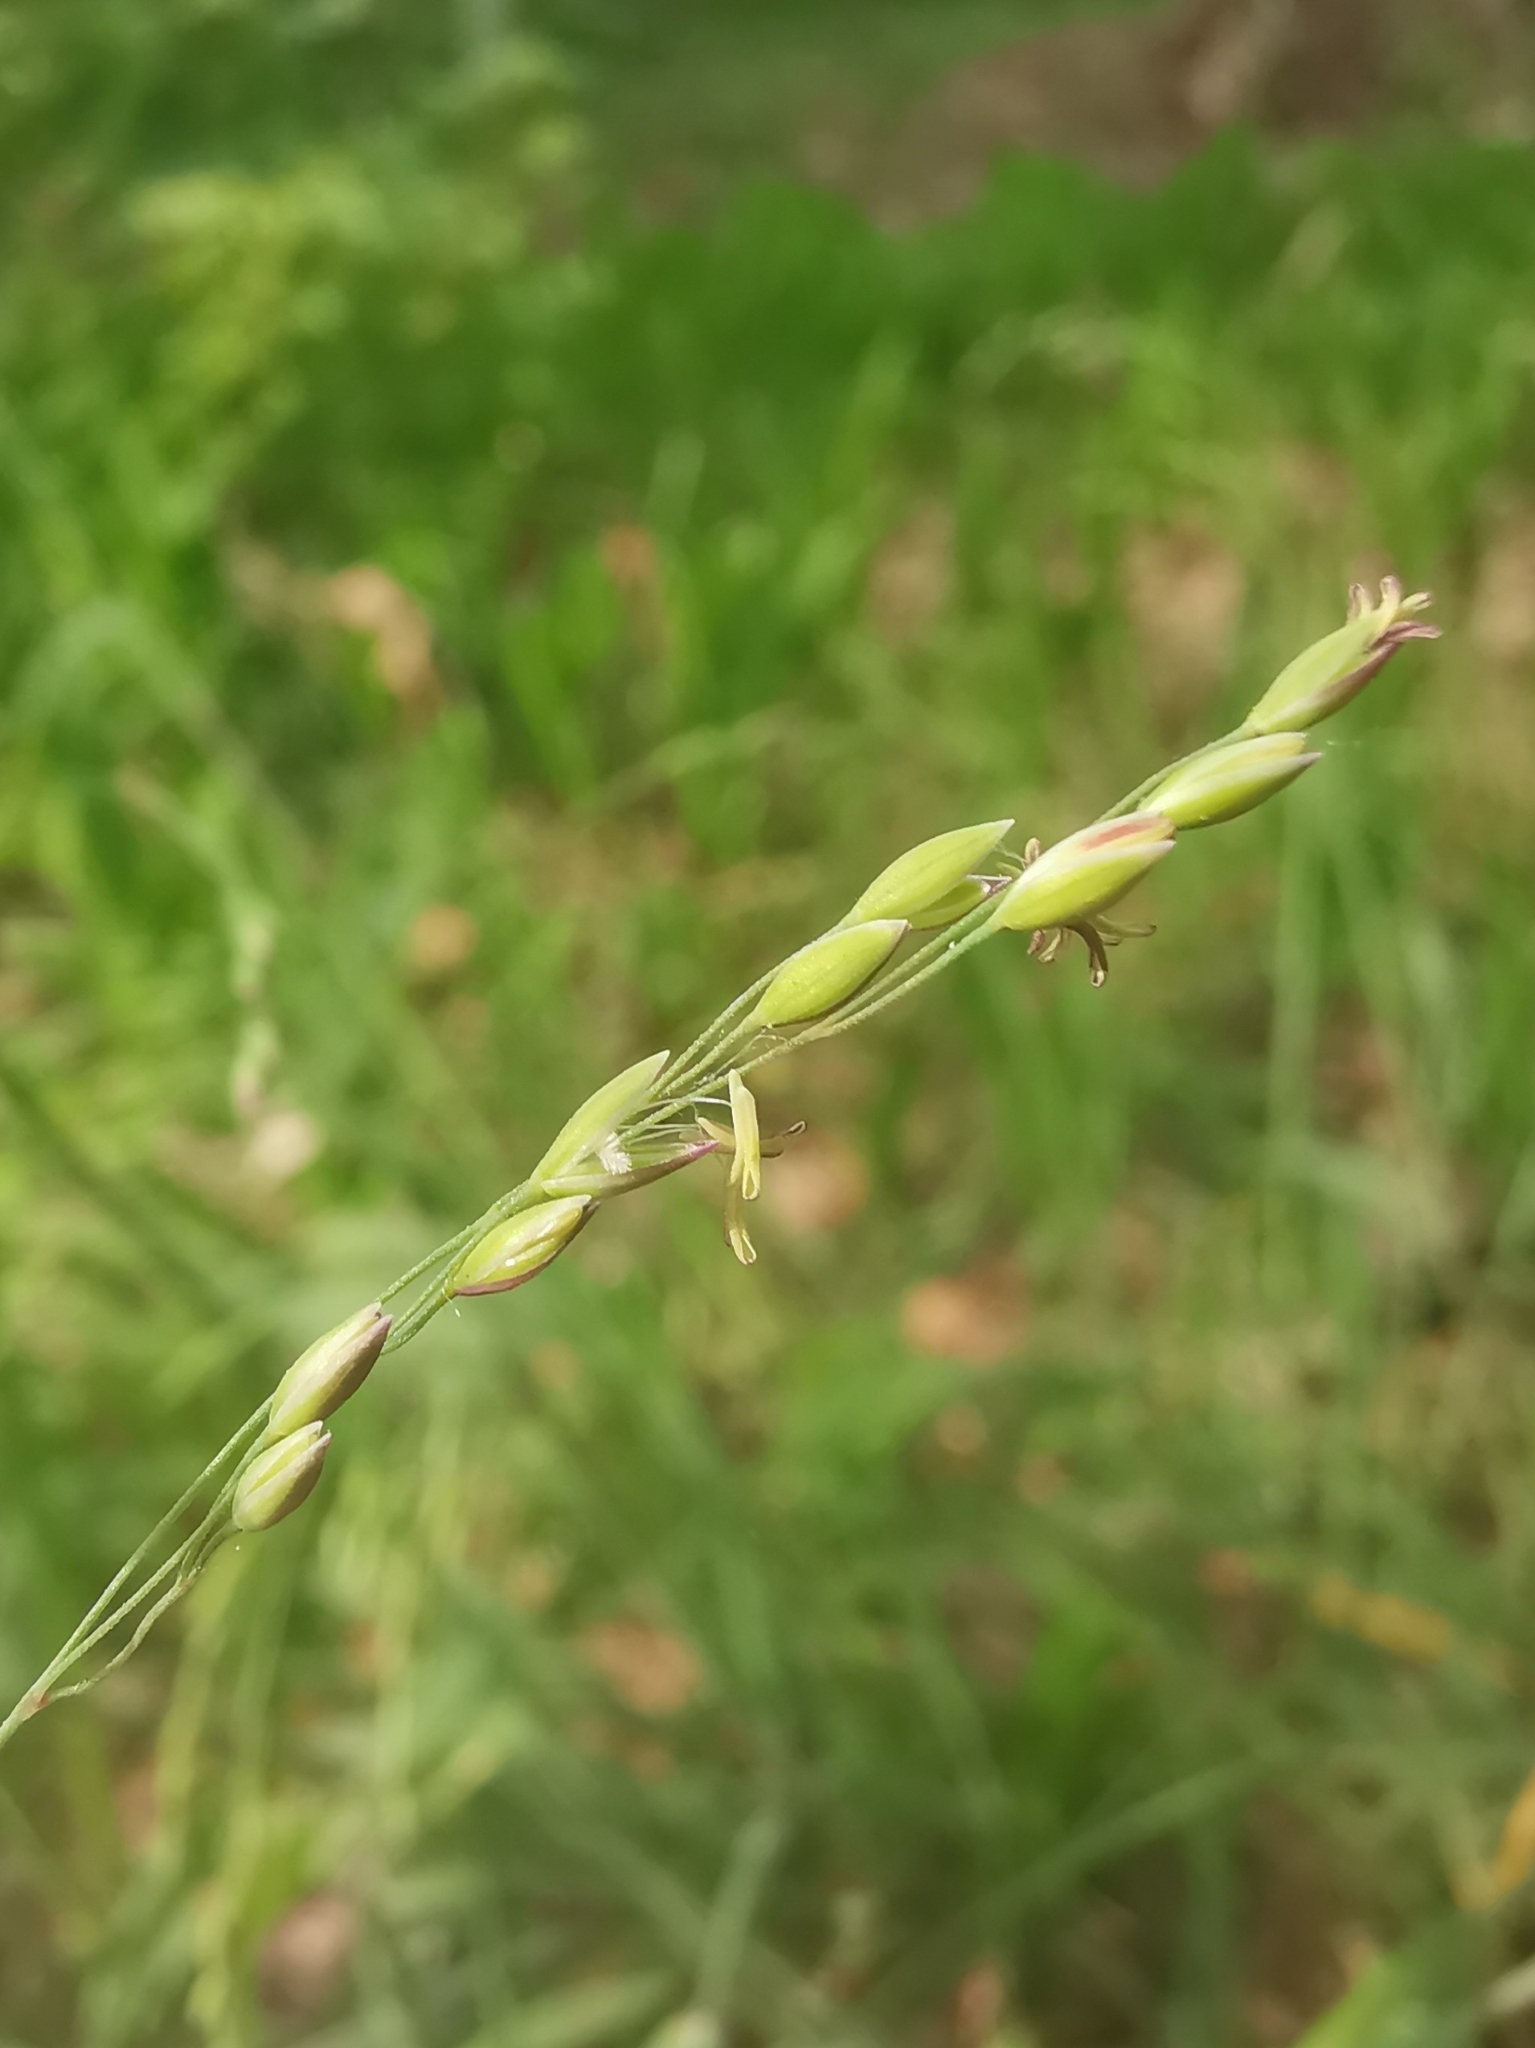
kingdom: Plantae
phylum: Tracheophyta
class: Liliopsida
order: Poales
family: Poaceae
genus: Milium
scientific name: Milium effusum
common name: Wood millet
